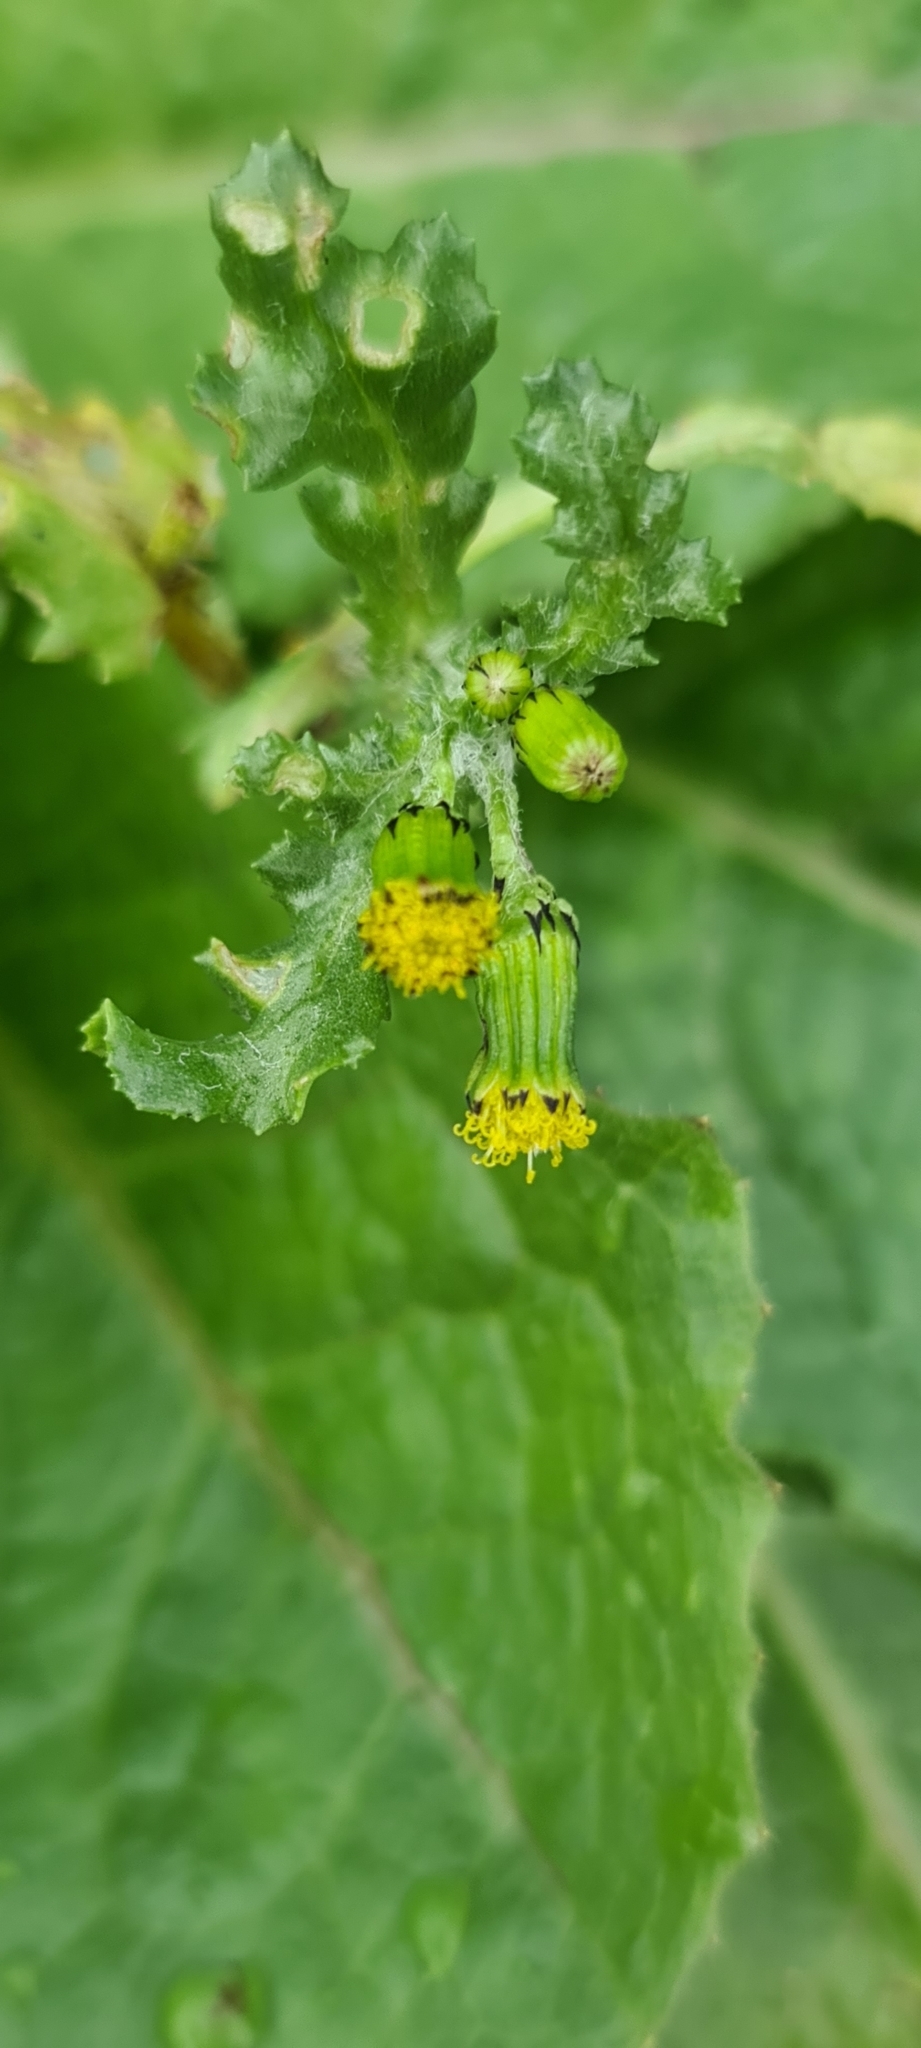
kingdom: Plantae
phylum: Tracheophyta
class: Magnoliopsida
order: Asterales
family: Asteraceae
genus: Senecio
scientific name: Senecio vulgaris
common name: Old-man-in-the-spring
